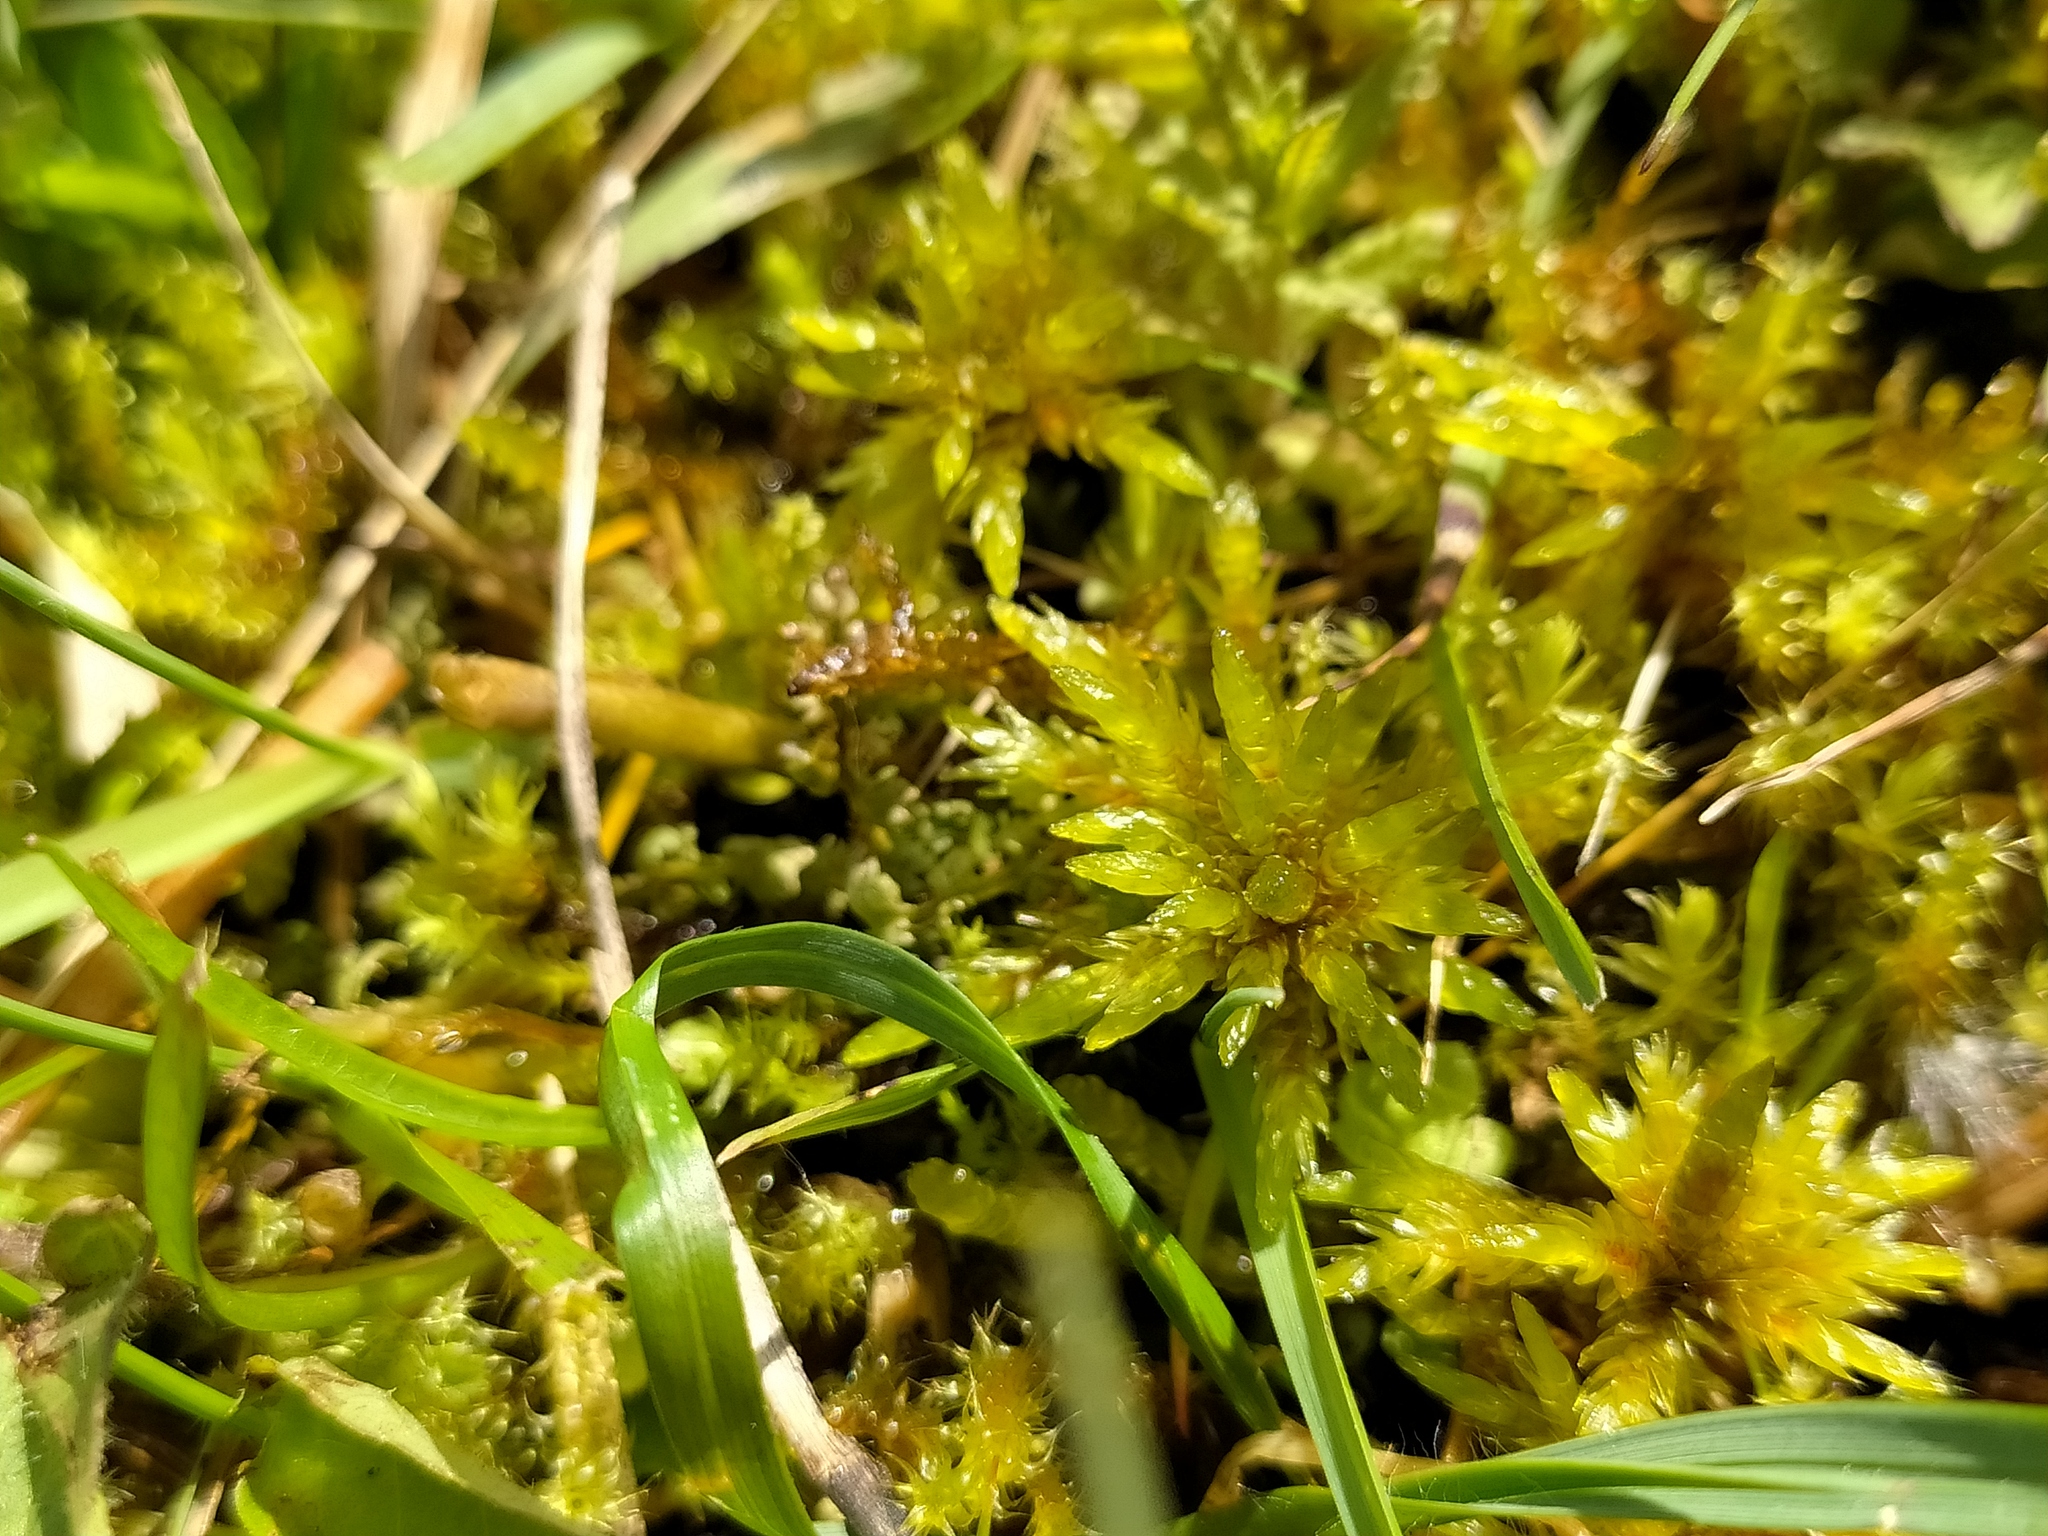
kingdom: Plantae
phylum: Bryophyta
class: Bryopsida
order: Hypnales
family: Climaciaceae
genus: Climacium
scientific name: Climacium dendroides
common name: Northern tree moss
